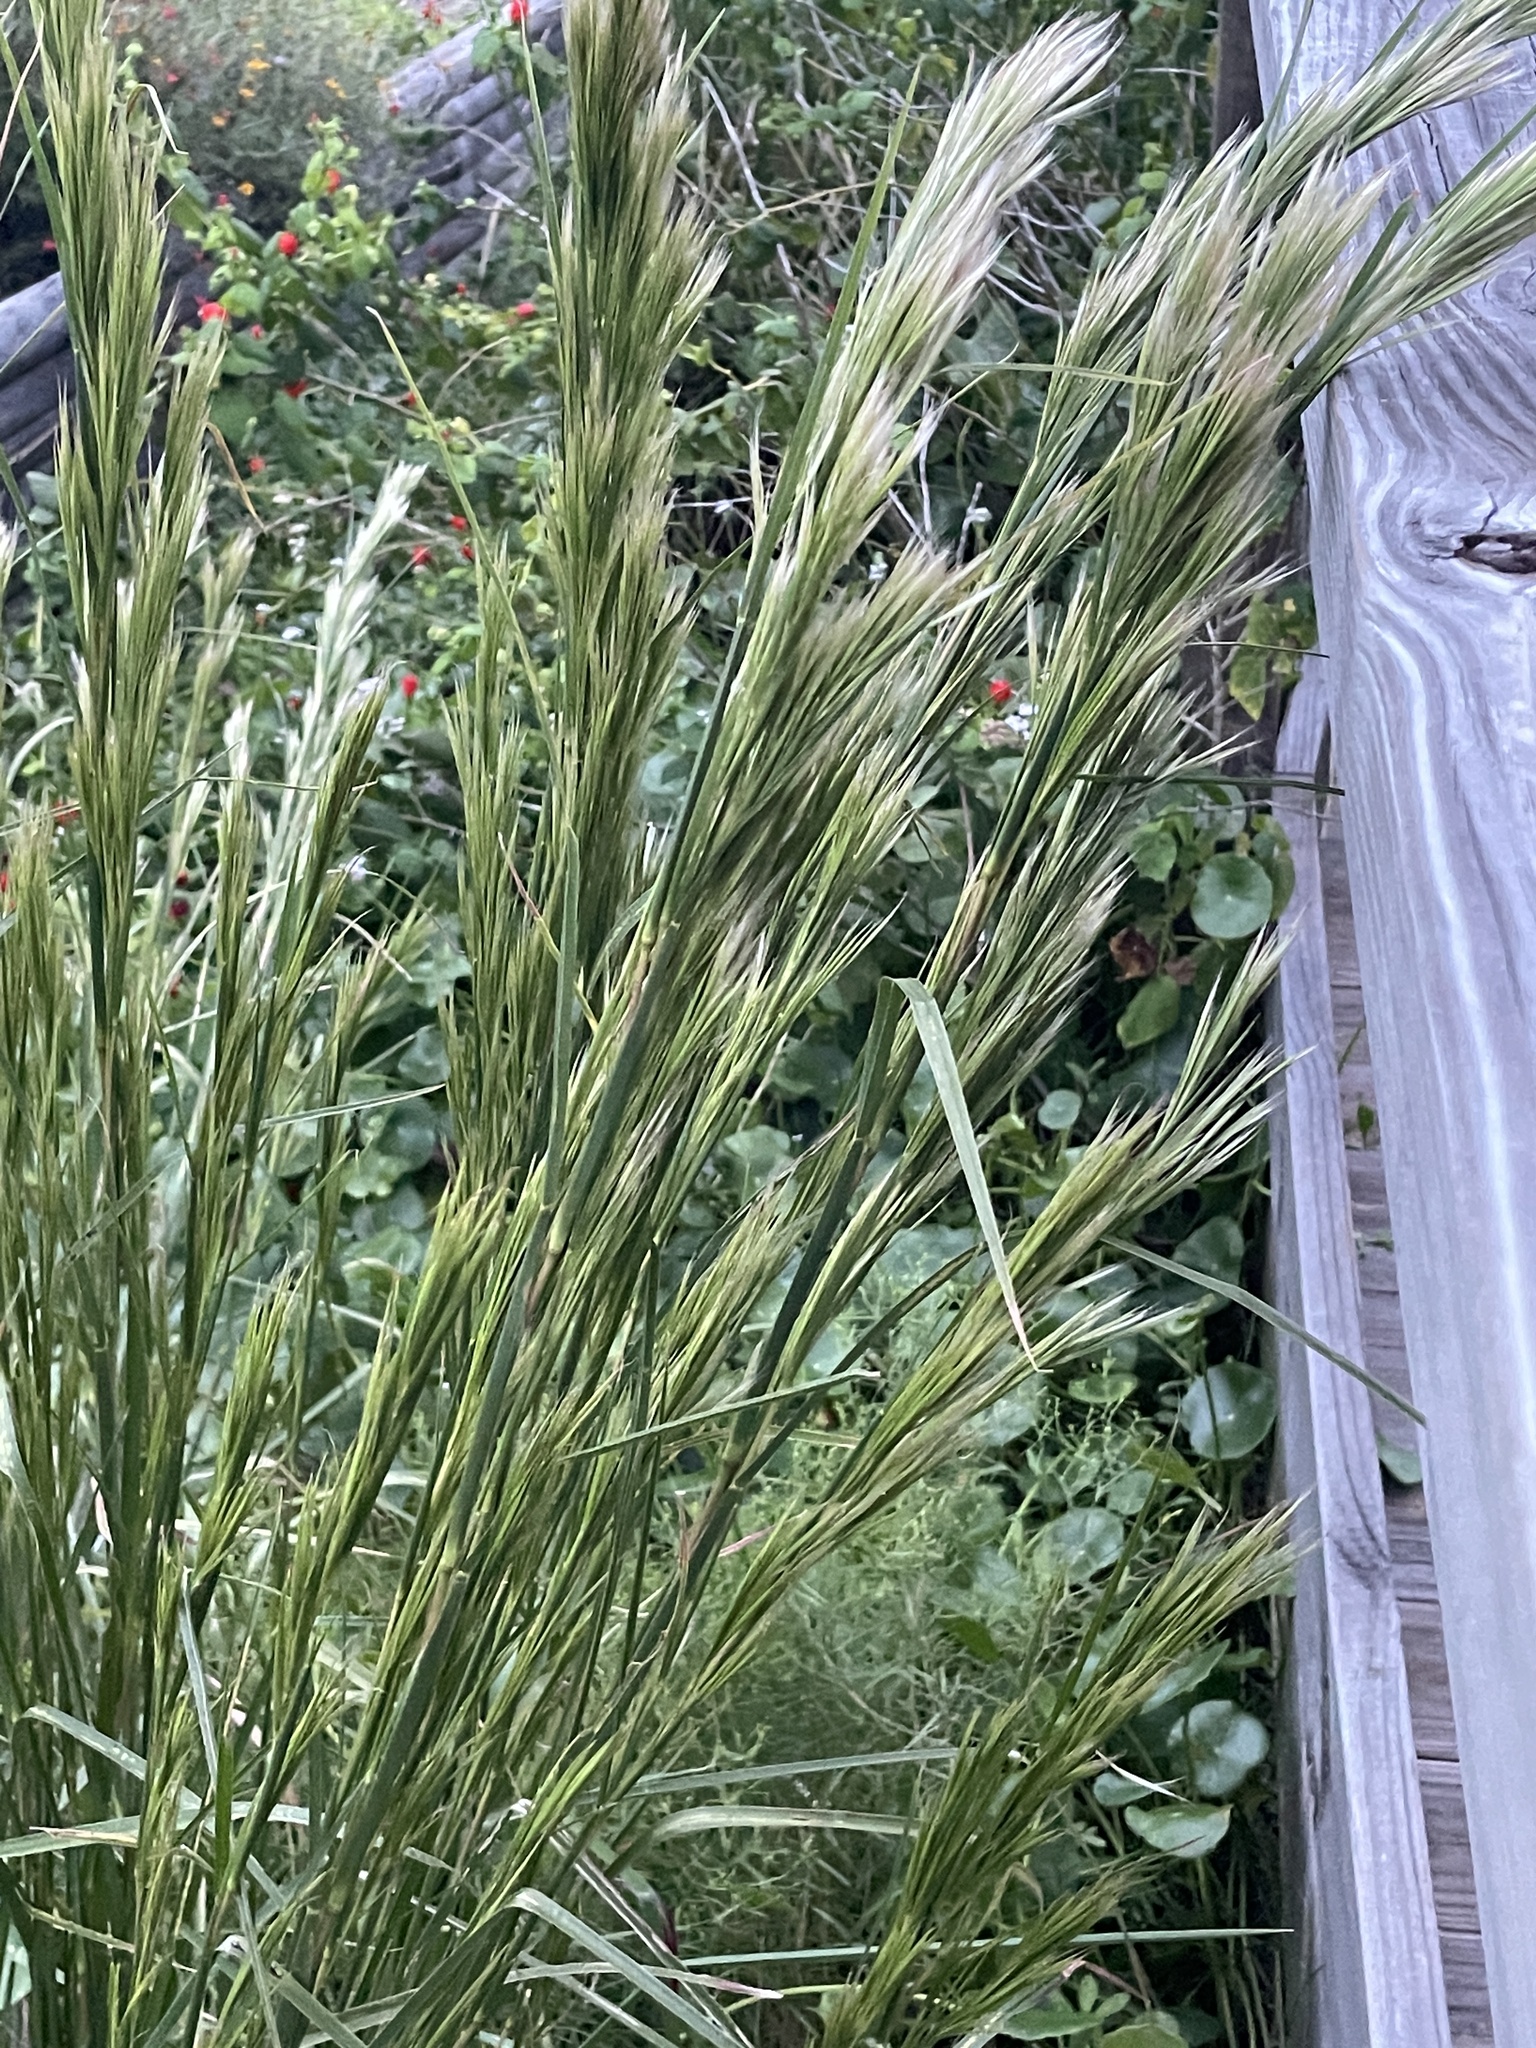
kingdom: Plantae
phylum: Tracheophyta
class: Liliopsida
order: Poales
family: Poaceae
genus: Andropogon
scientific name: Andropogon tenuispatheus
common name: Bushy bluestem
